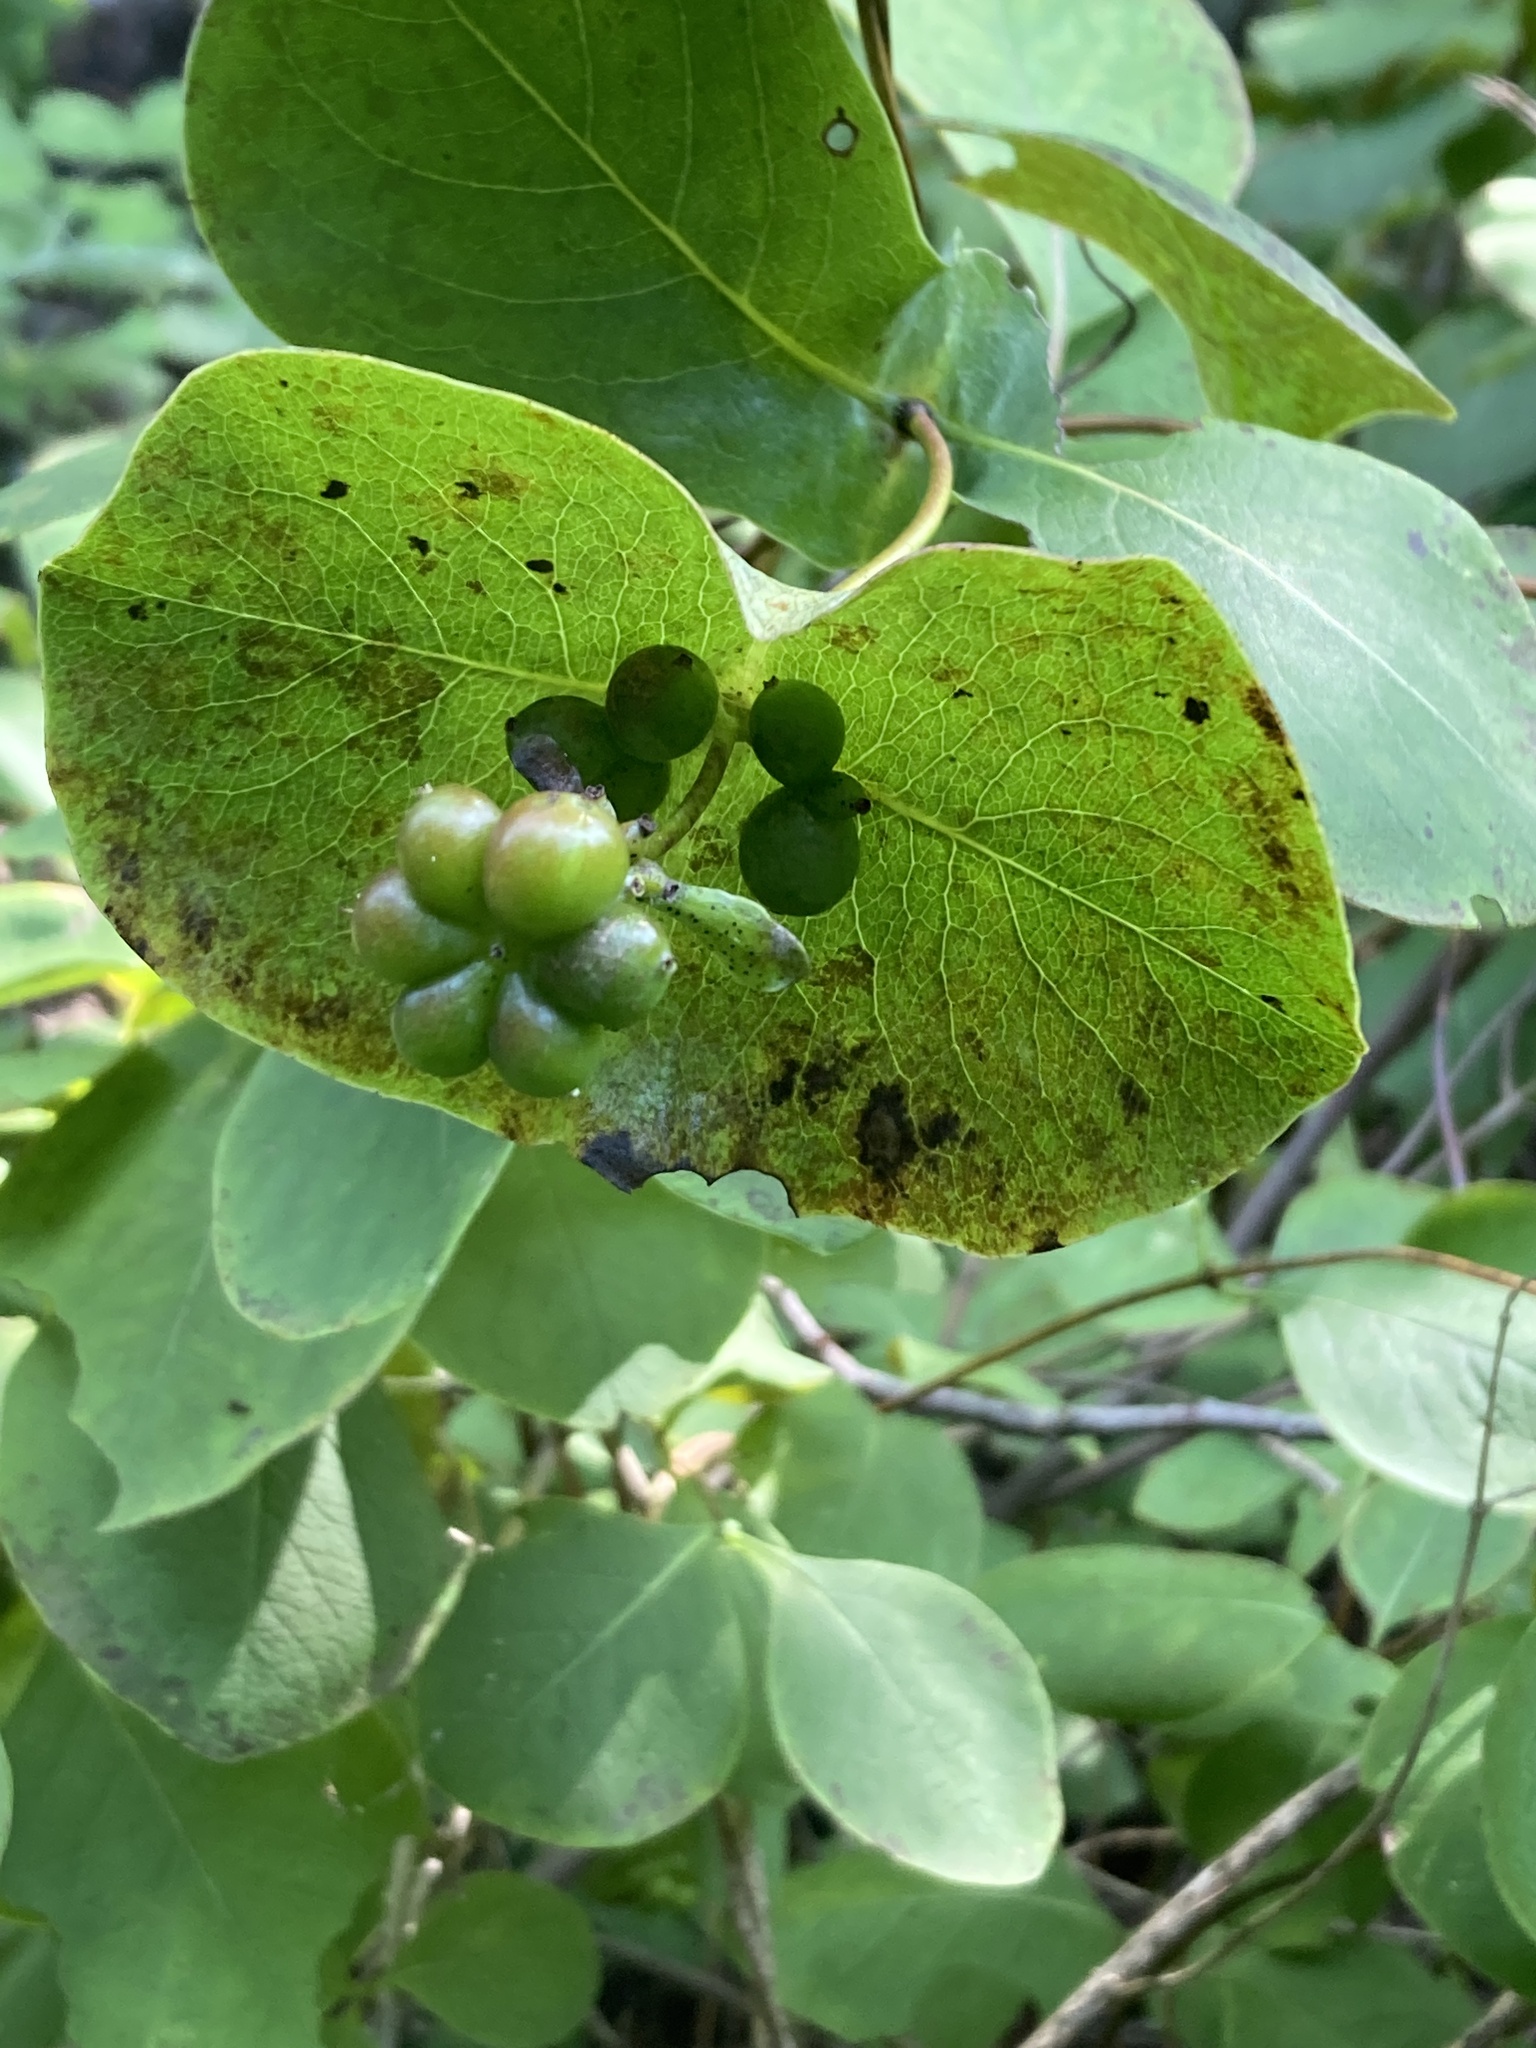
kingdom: Plantae
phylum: Tracheophyta
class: Magnoliopsida
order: Dipsacales
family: Caprifoliaceae
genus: Lonicera
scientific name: Lonicera reticulata
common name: Grape honeysuckle
